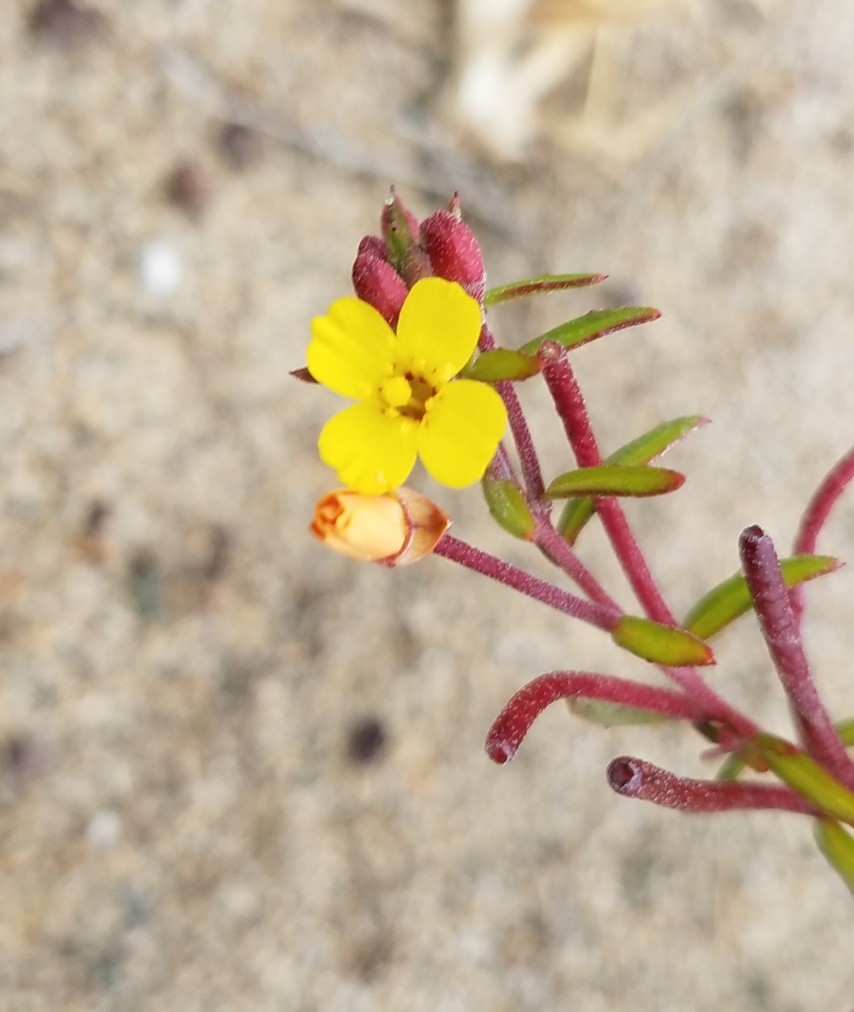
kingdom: Plantae
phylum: Tracheophyta
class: Magnoliopsida
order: Myrtales
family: Onagraceae
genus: Camissonia
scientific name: Camissonia strigulosa
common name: Contorted-primrose
